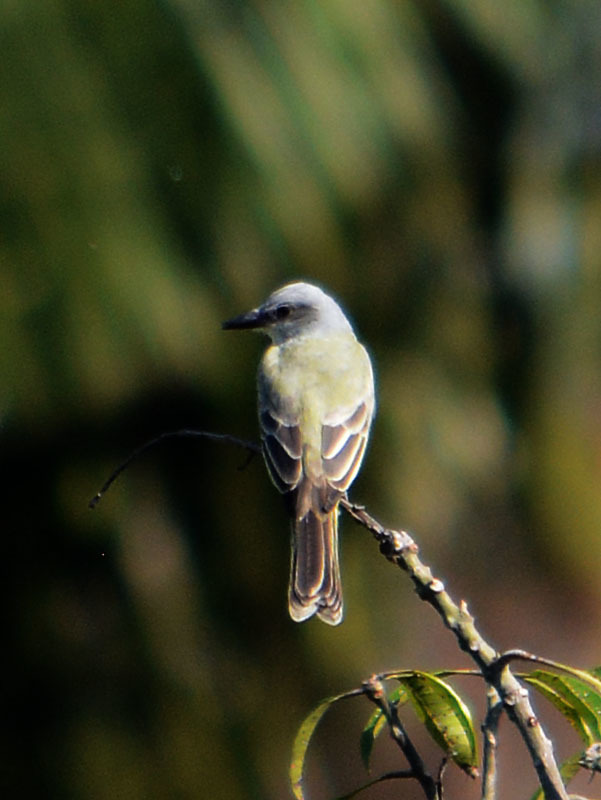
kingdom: Animalia
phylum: Chordata
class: Aves
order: Passeriformes
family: Tyrannidae
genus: Tyrannus
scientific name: Tyrannus melancholicus
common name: Tropical kingbird
